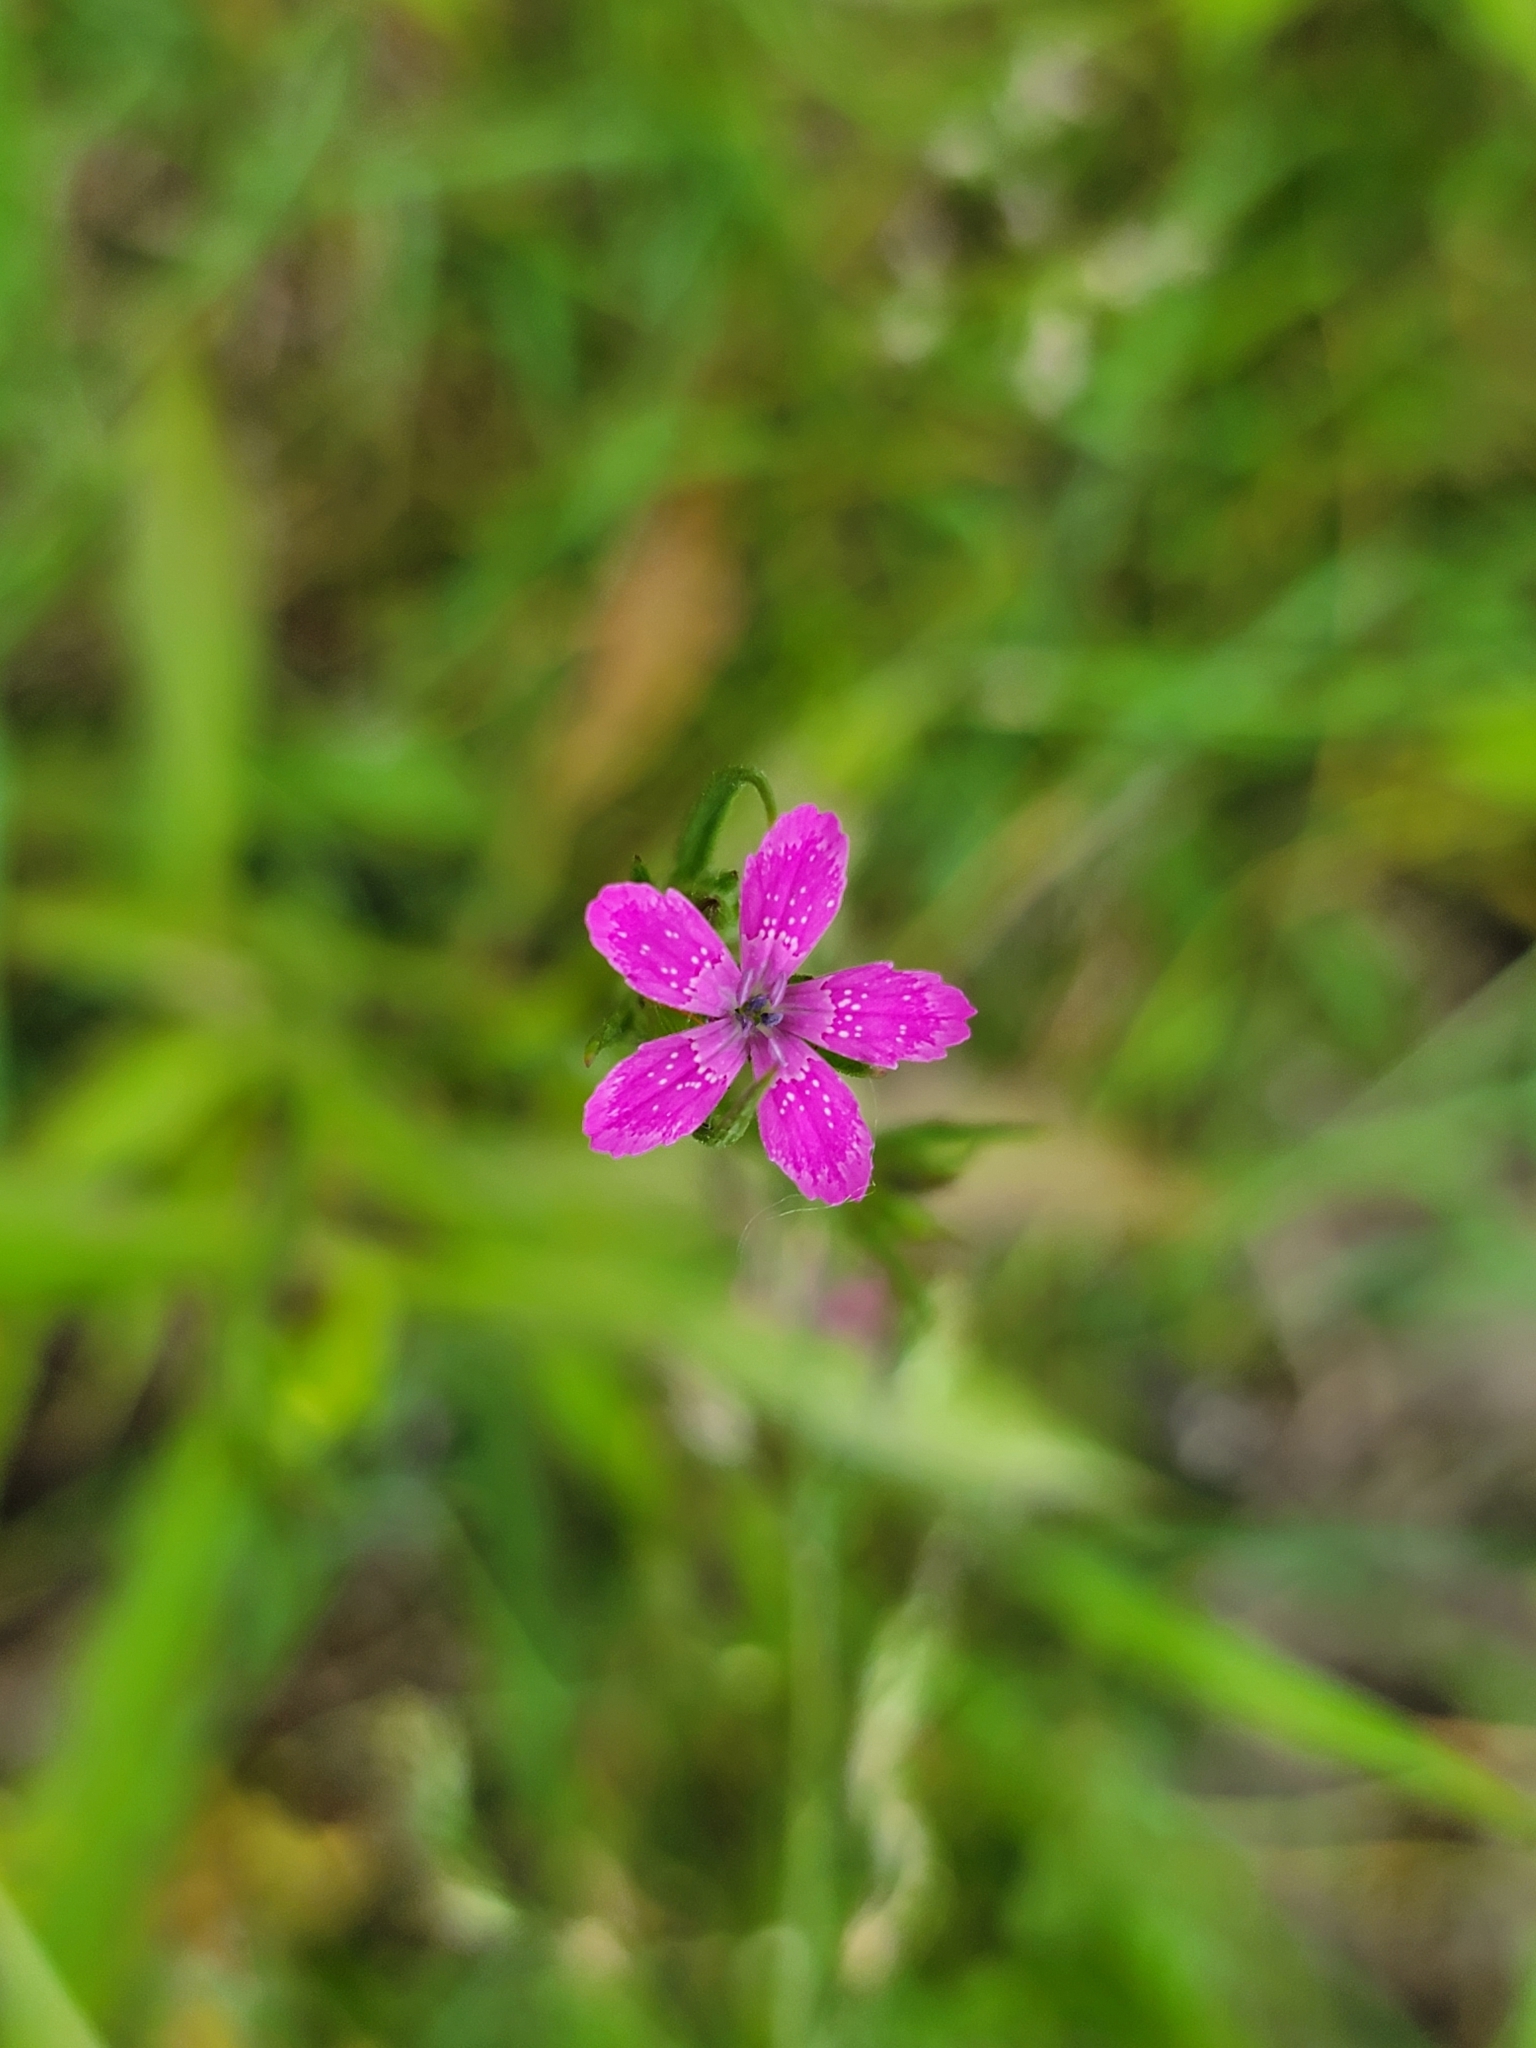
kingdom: Plantae
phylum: Tracheophyta
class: Magnoliopsida
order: Caryophyllales
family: Caryophyllaceae
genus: Dianthus
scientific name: Dianthus armeria
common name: Deptford pink
